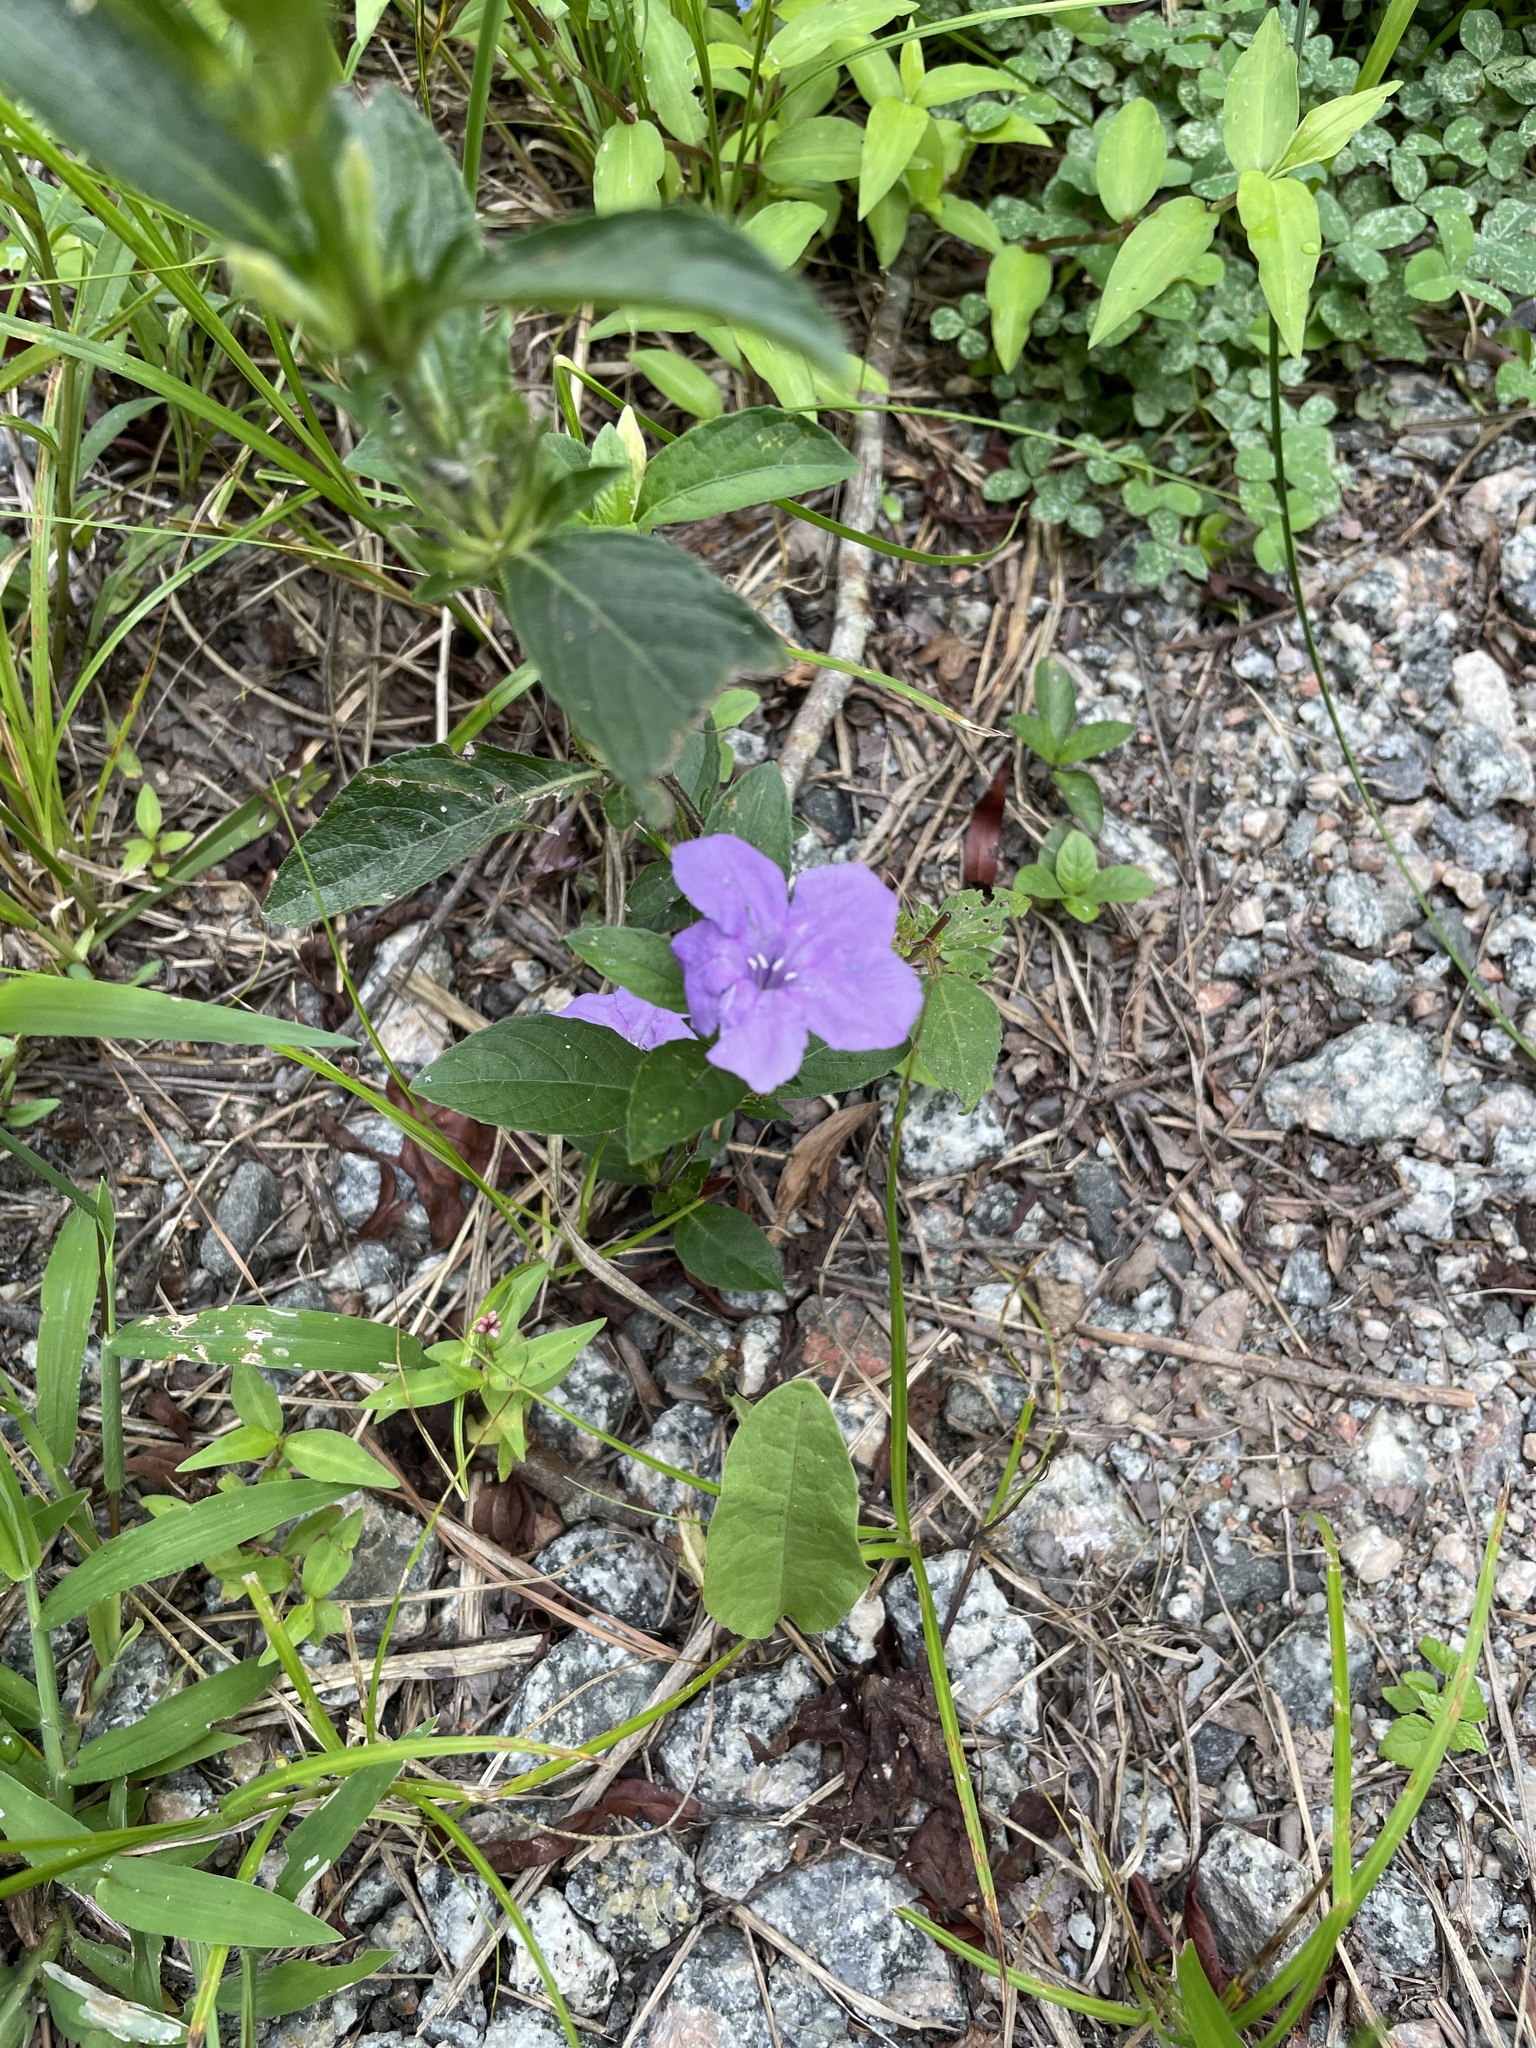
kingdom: Plantae
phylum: Tracheophyta
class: Magnoliopsida
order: Lamiales
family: Acanthaceae
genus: Ruellia
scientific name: Ruellia caroliniensis
